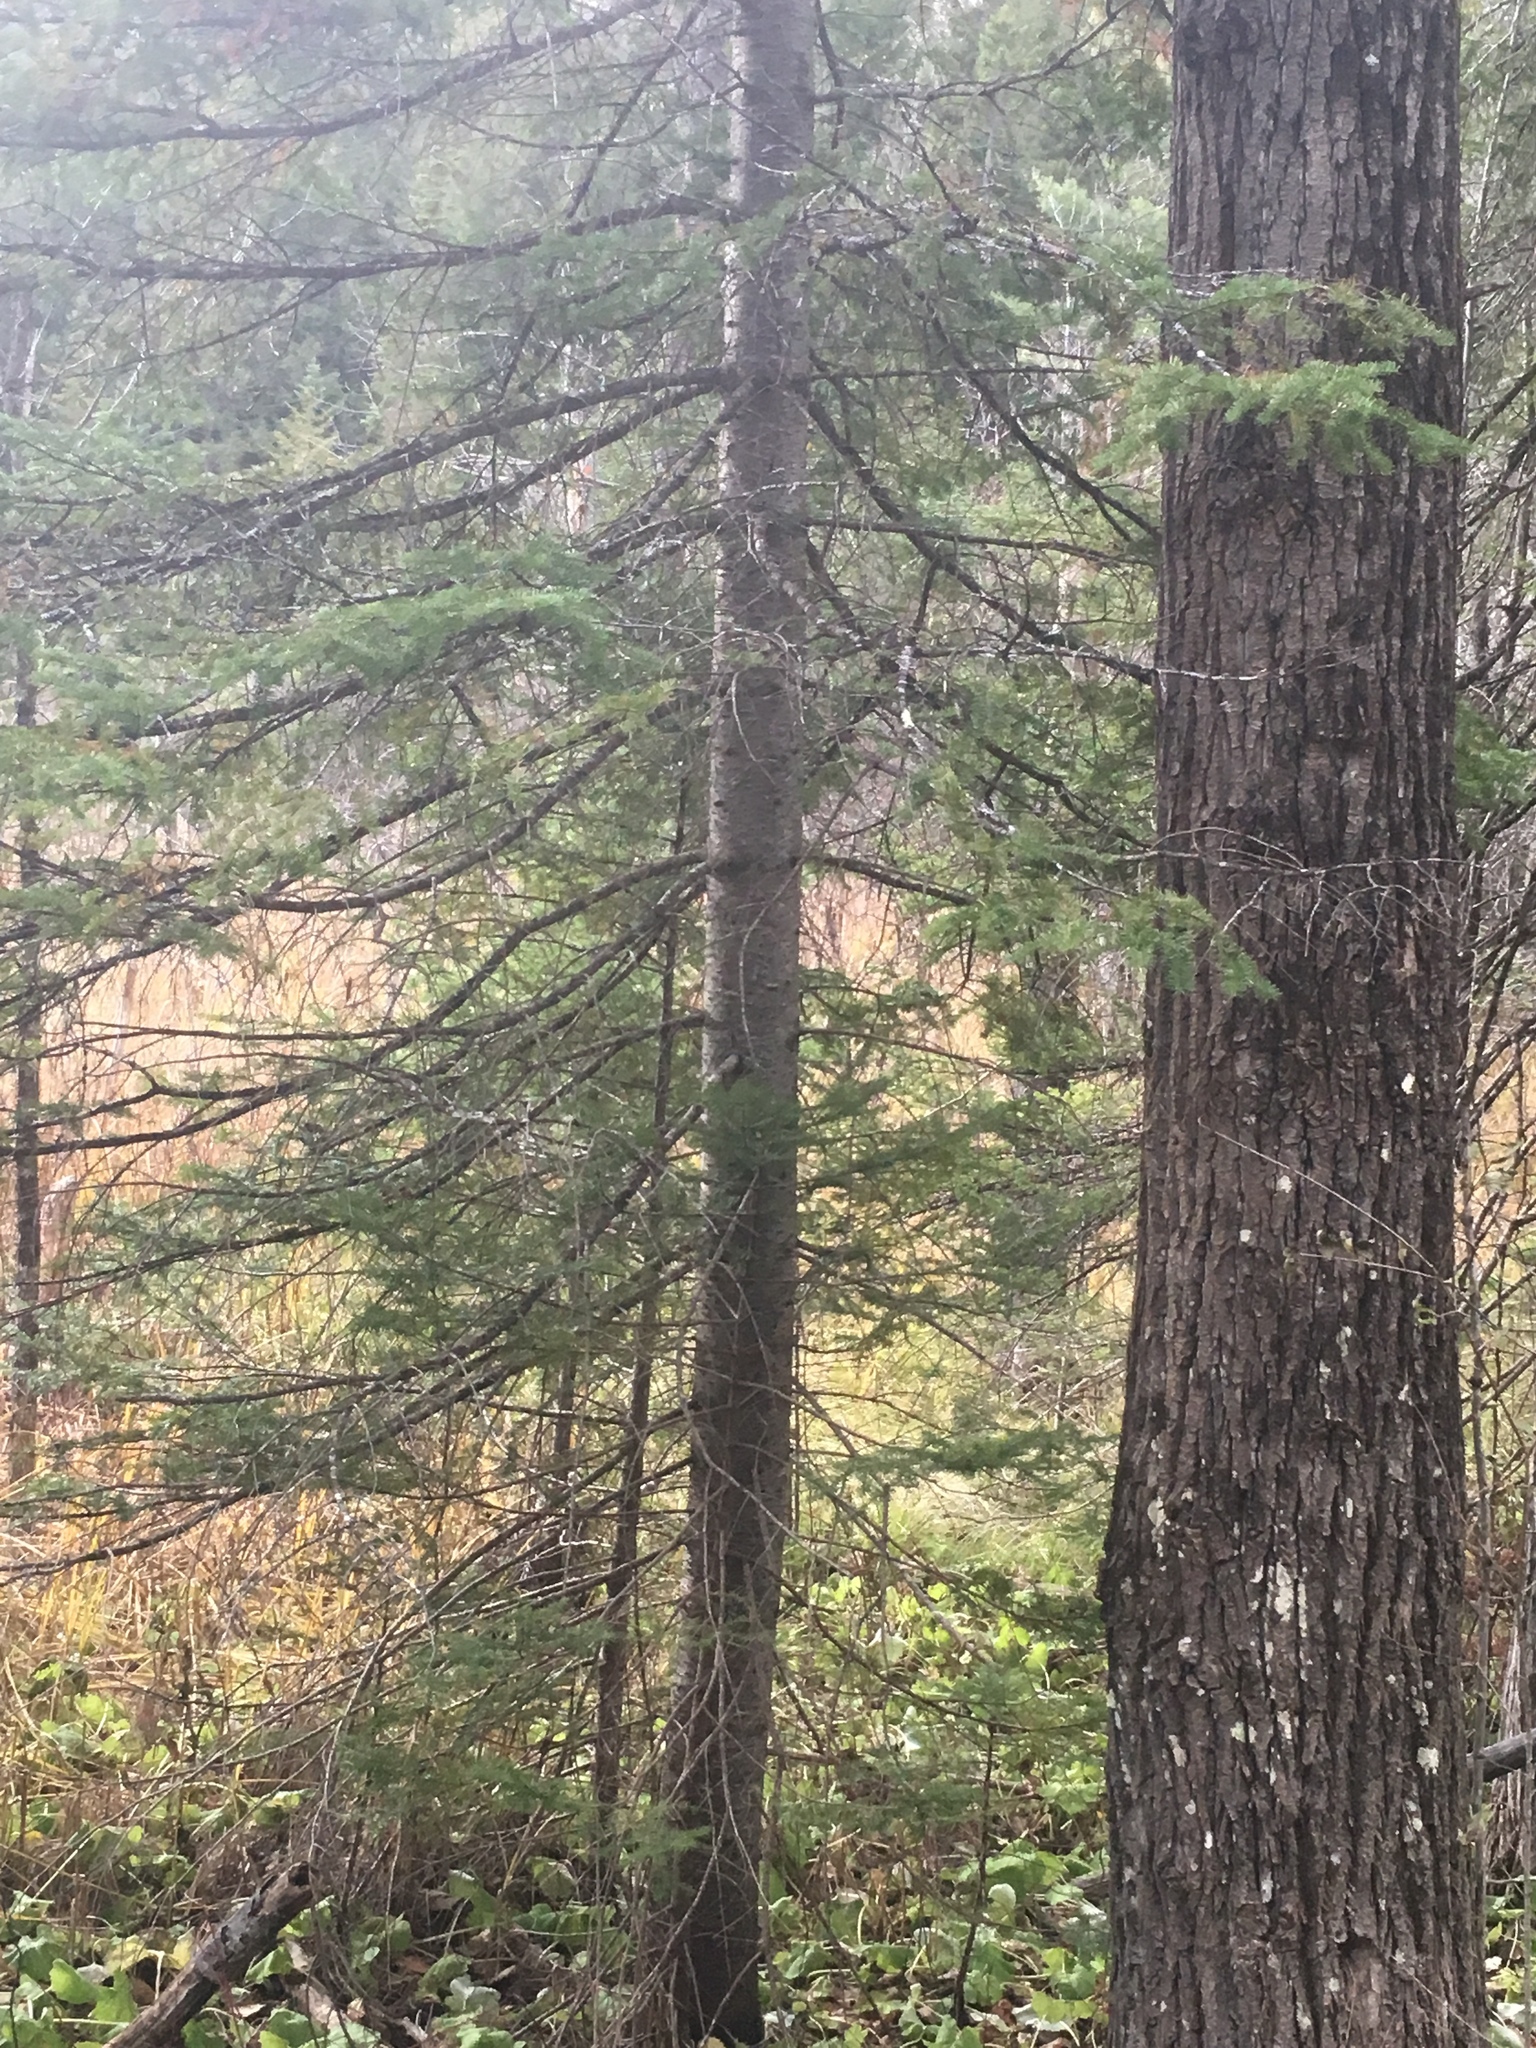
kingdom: Plantae
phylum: Tracheophyta
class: Pinopsida
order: Pinales
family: Pinaceae
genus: Abies
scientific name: Abies balsamea
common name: Balsam fir
